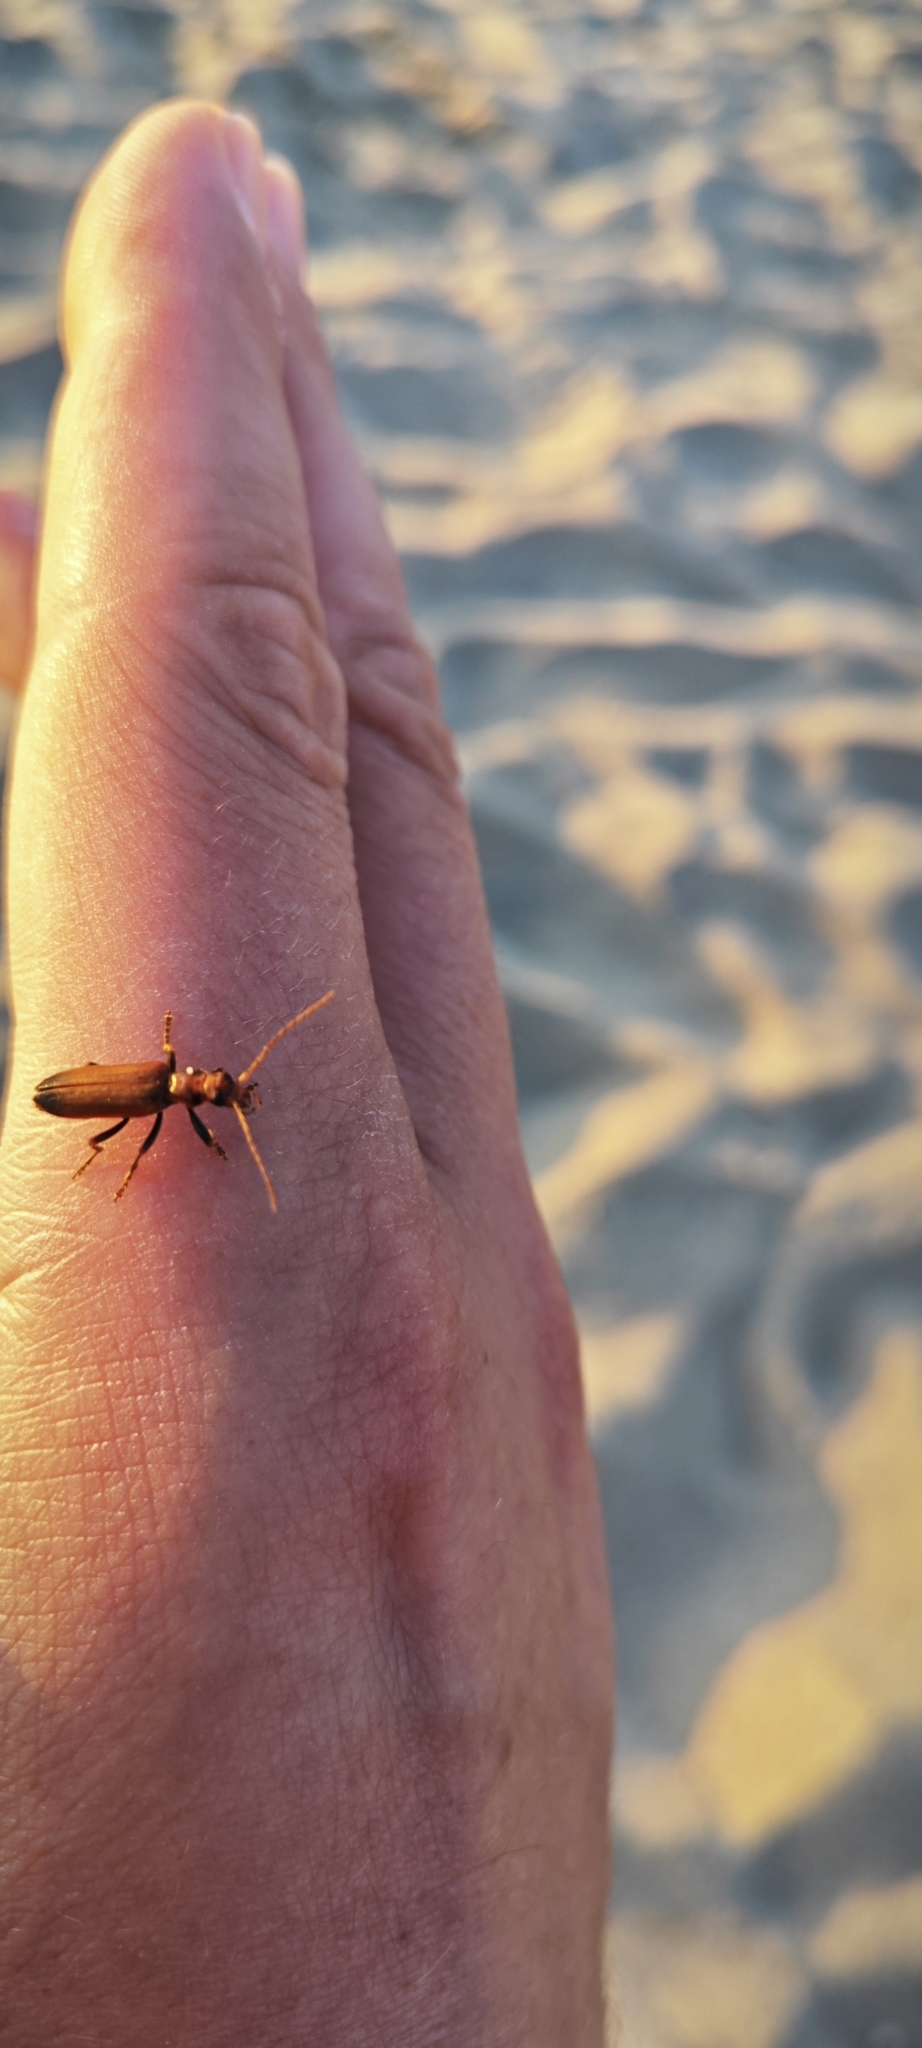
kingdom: Animalia
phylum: Arthropoda
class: Insecta
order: Coleoptera
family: Oedemeridae
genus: Nacerdes
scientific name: Nacerdes melanura
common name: Wharf borer
